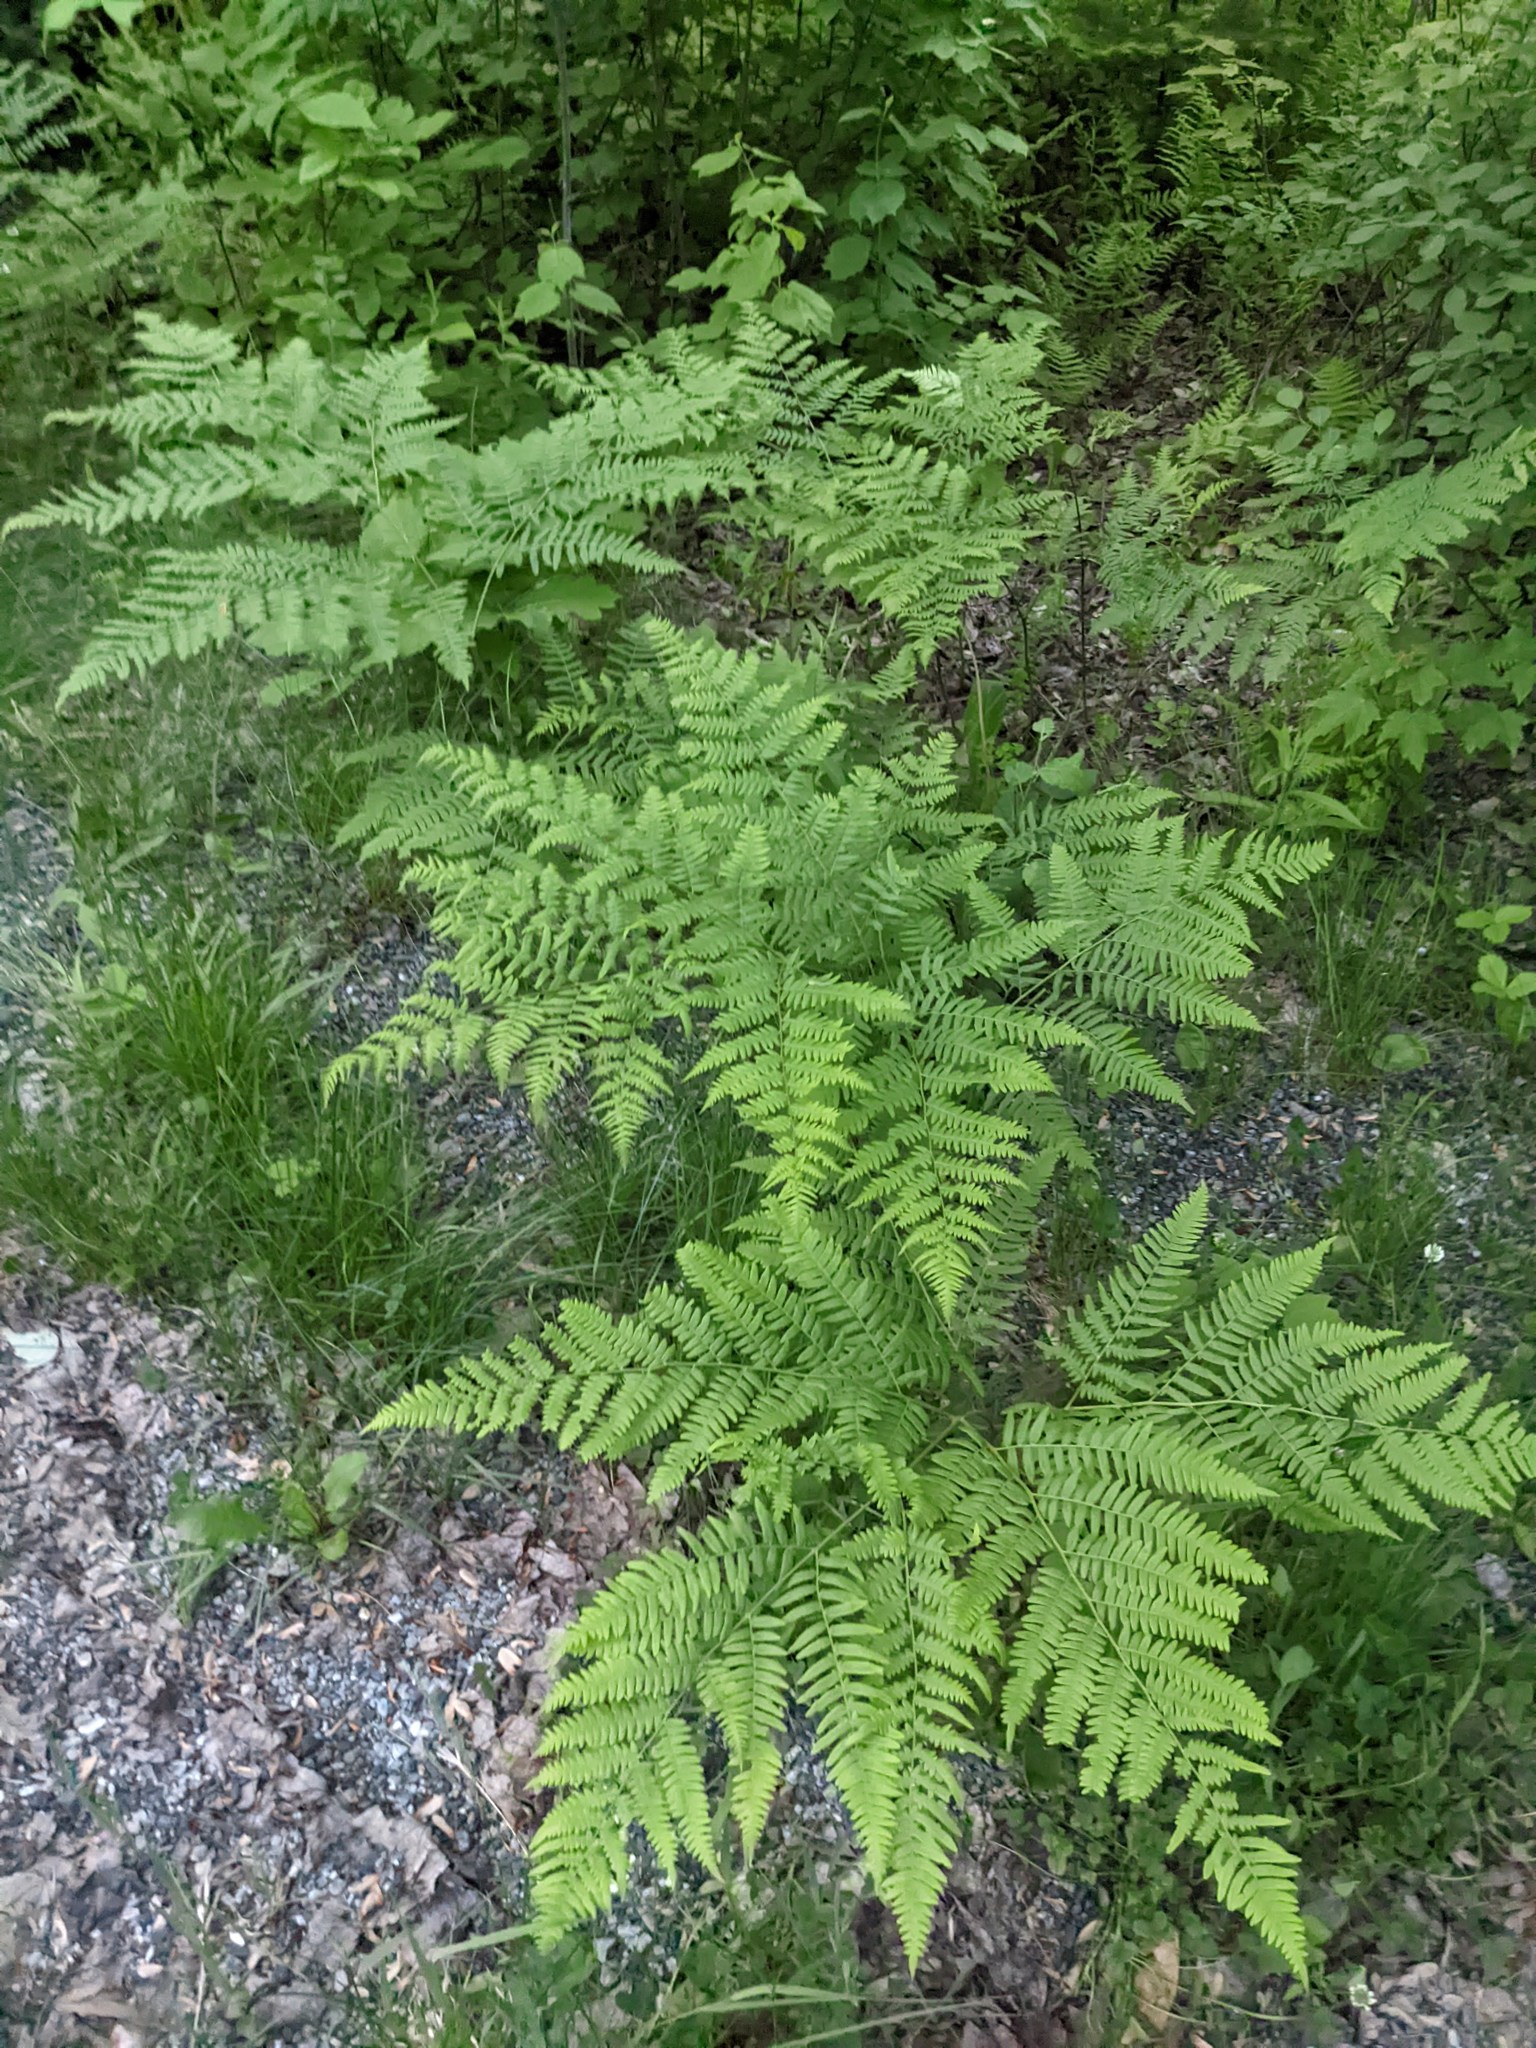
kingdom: Plantae
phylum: Tracheophyta
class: Polypodiopsida
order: Polypodiales
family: Dennstaedtiaceae
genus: Pteridium
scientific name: Pteridium aquilinum
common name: Bracken
